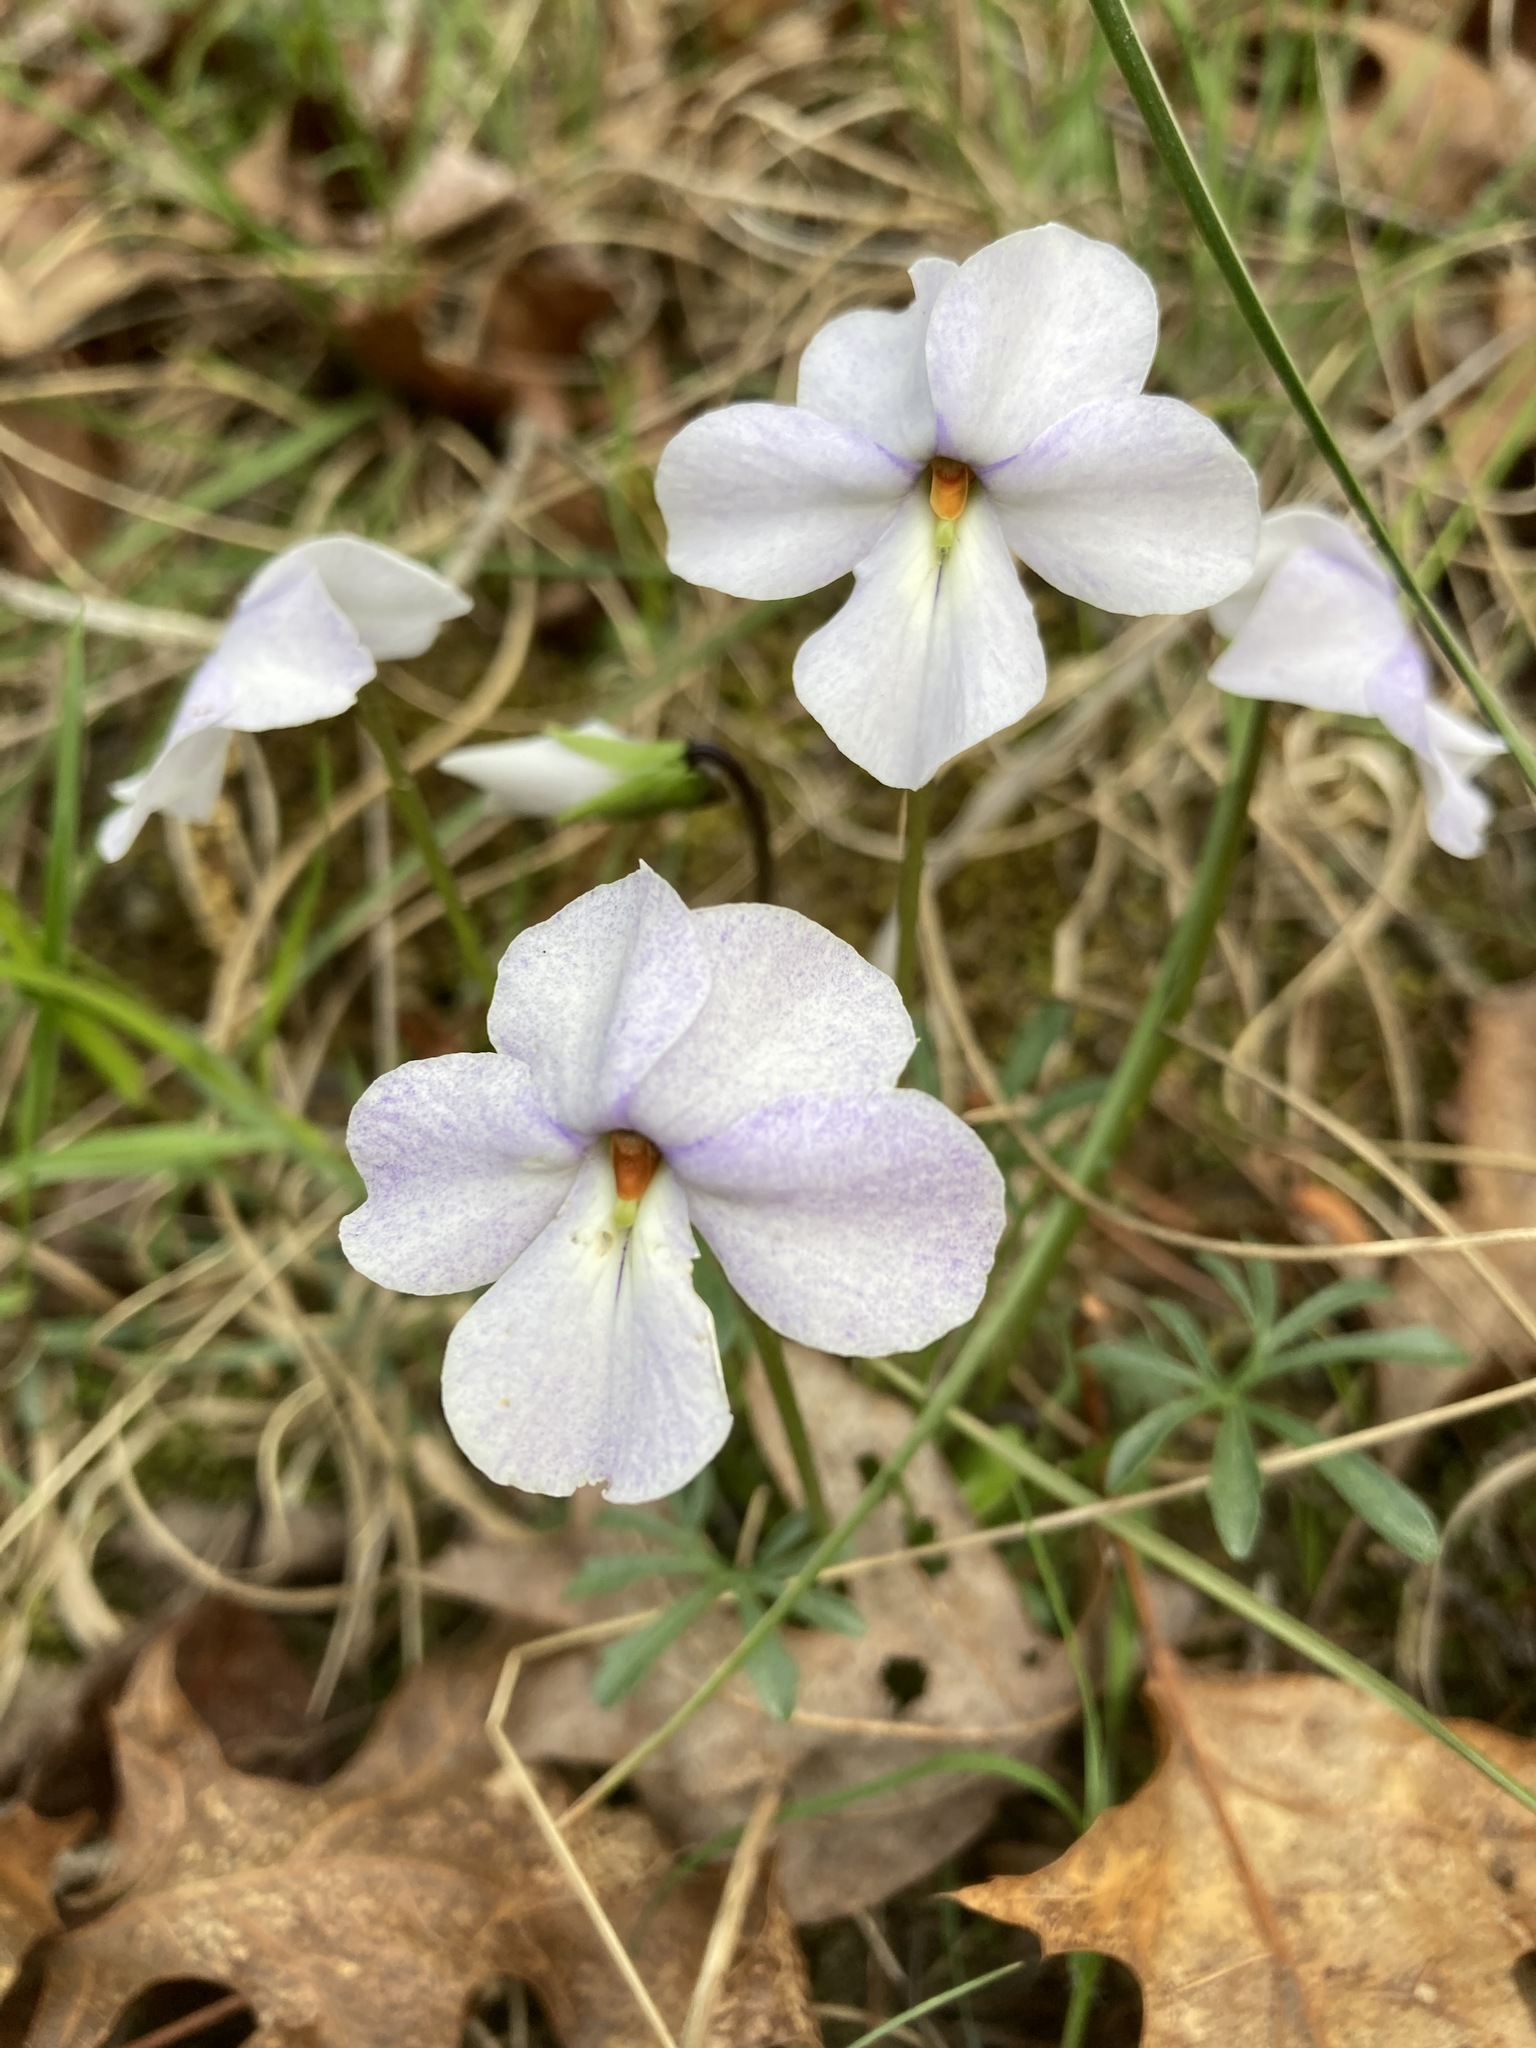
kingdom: Plantae
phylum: Tracheophyta
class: Magnoliopsida
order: Malpighiales
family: Violaceae
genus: Viola
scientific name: Viola pedata
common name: Pansy violet
